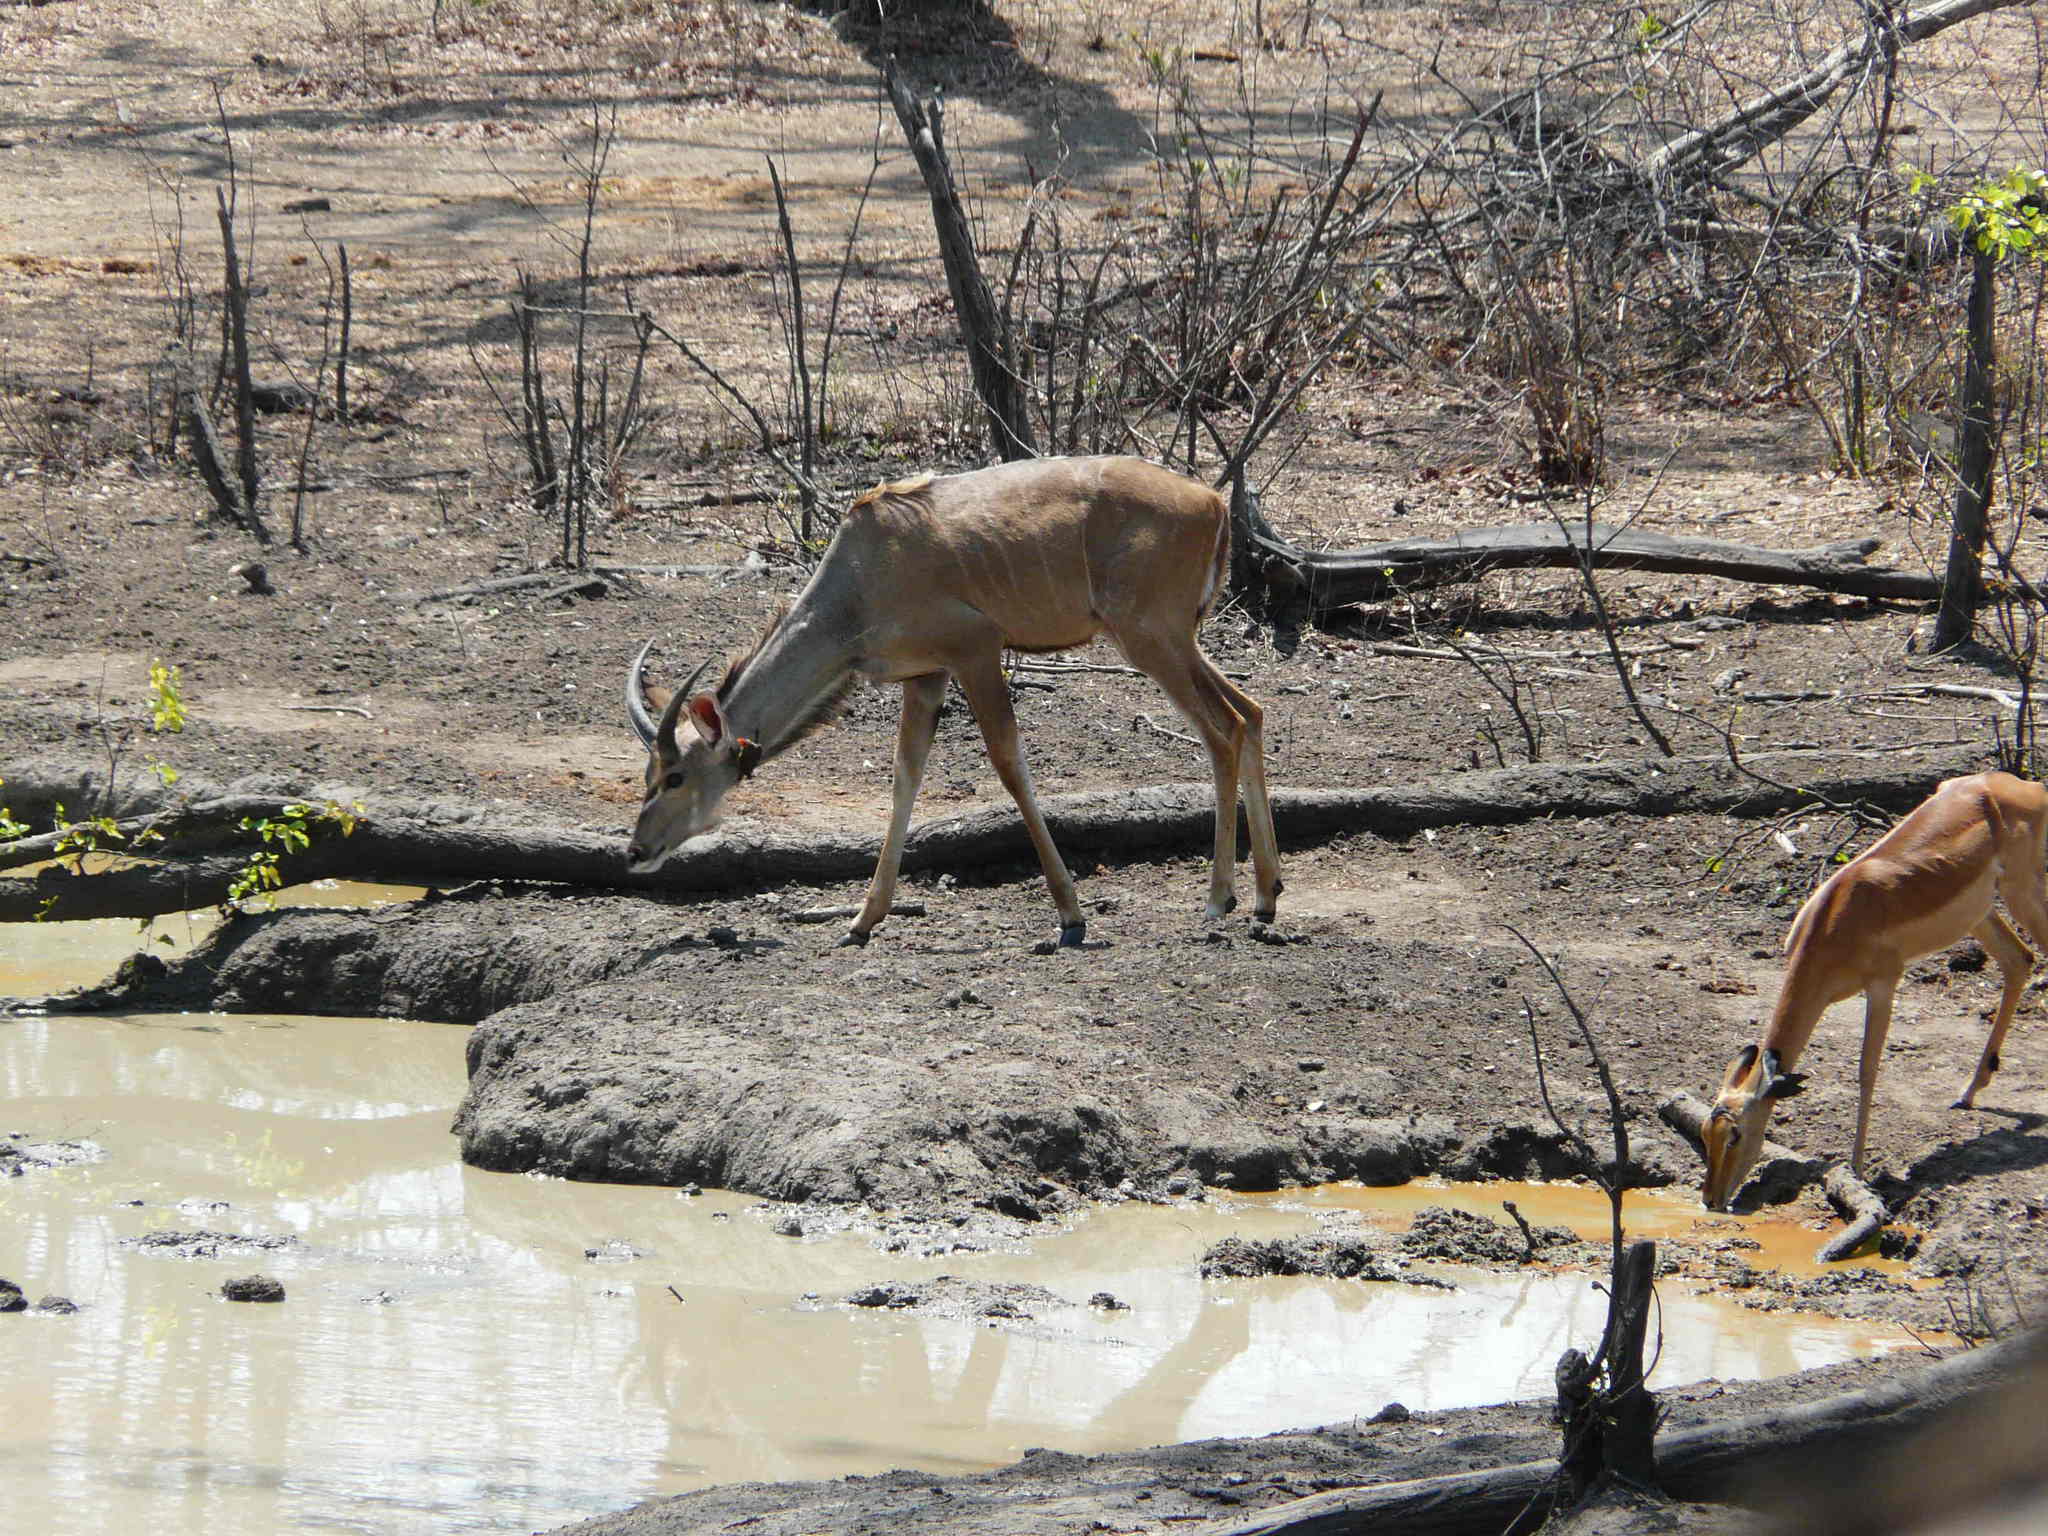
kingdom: Animalia
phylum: Chordata
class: Mammalia
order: Artiodactyla
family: Bovidae
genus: Tragelaphus
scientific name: Tragelaphus strepsiceros
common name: Greater kudu
